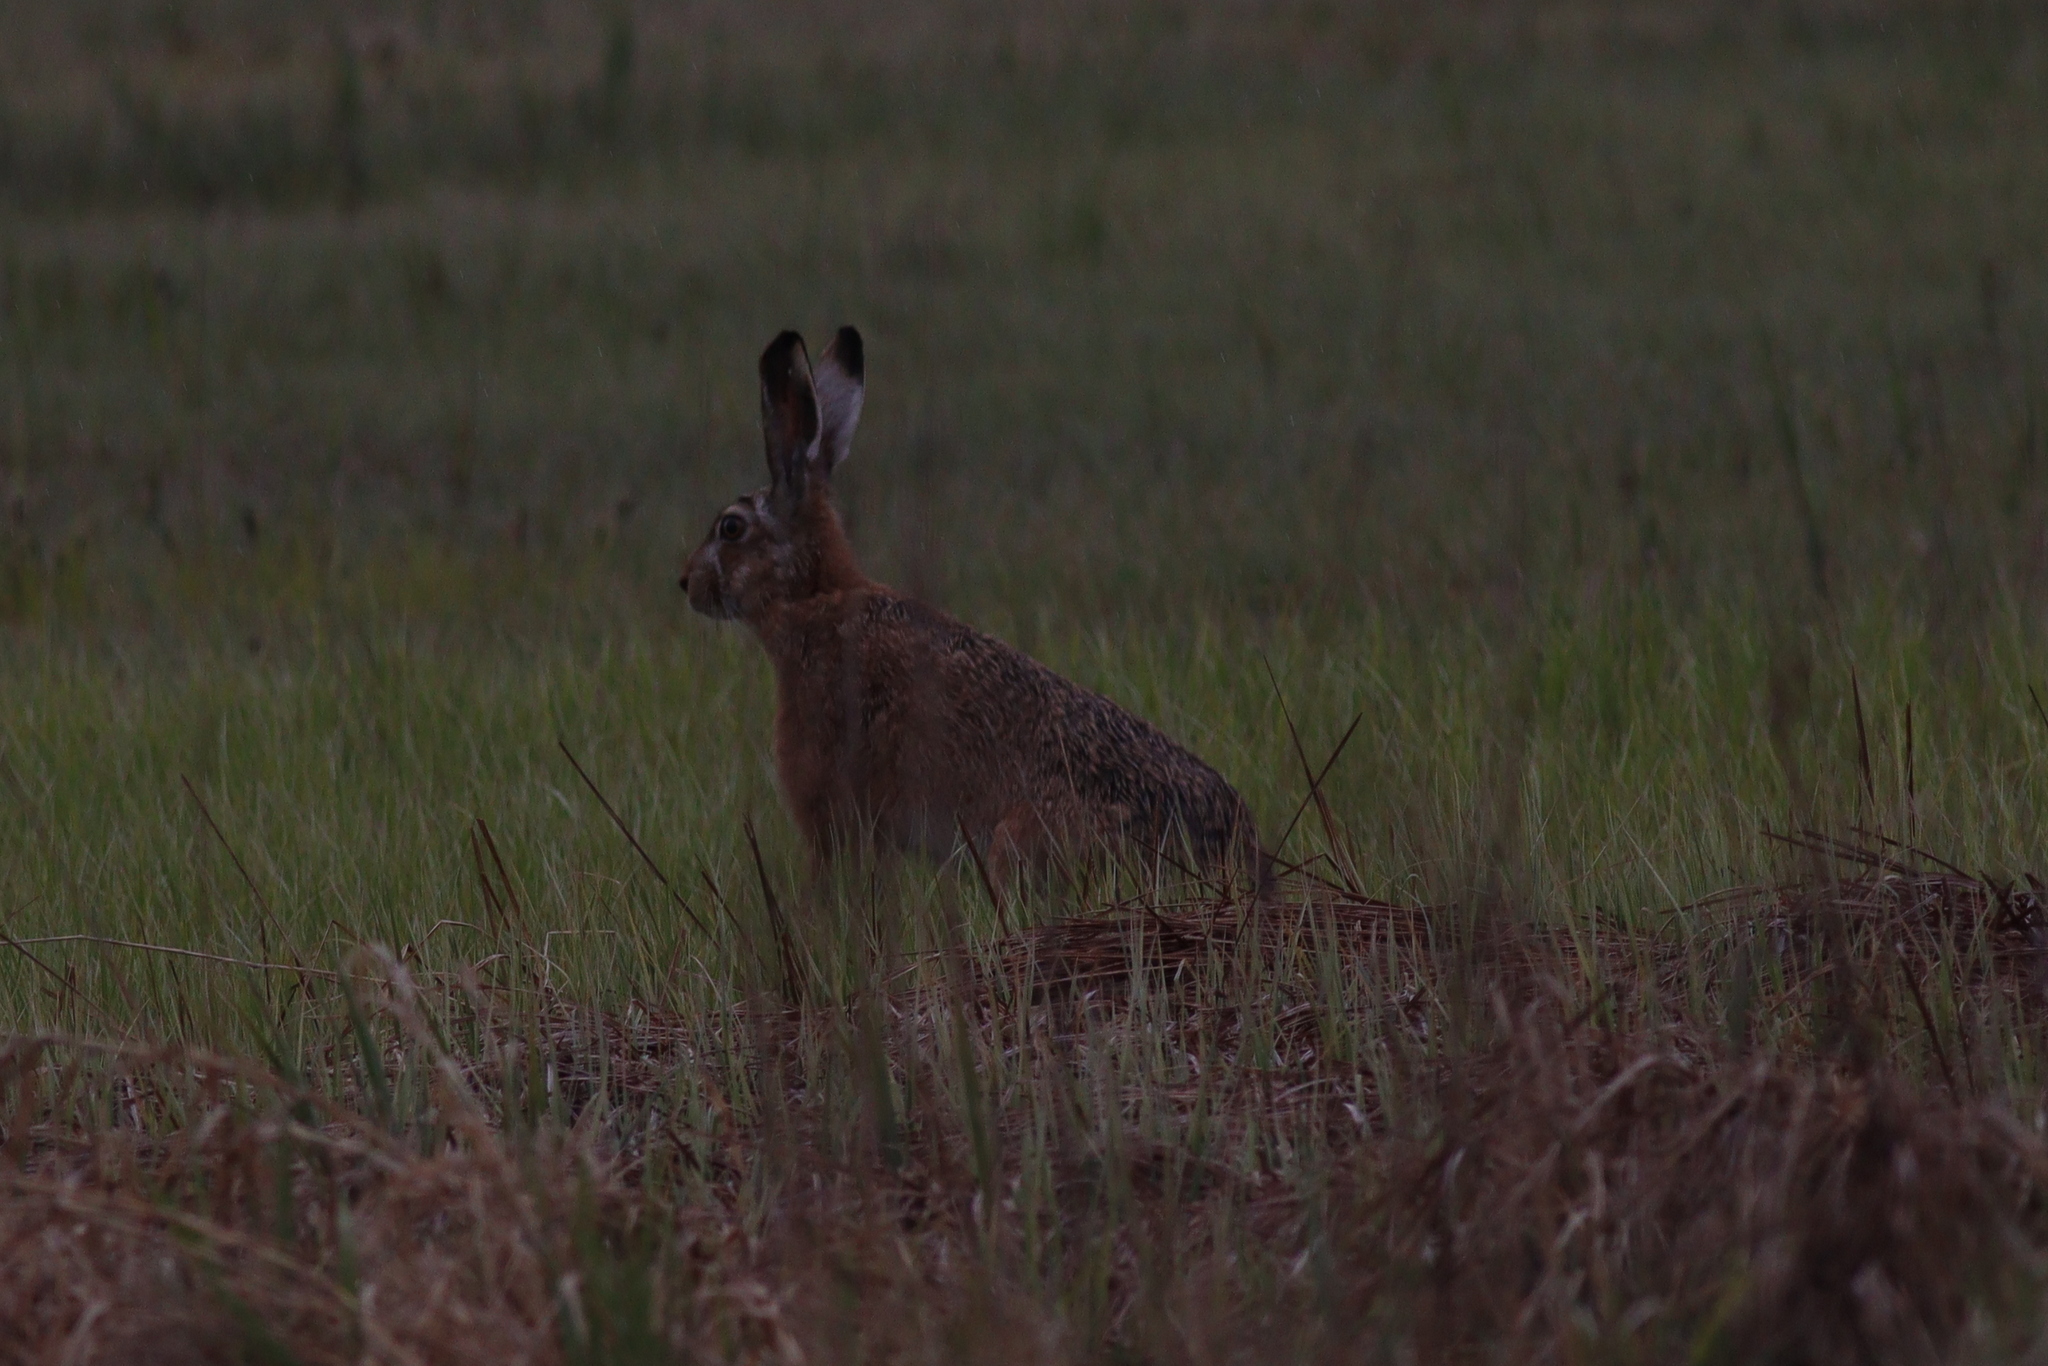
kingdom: Animalia
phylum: Chordata
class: Mammalia
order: Lagomorpha
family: Leporidae
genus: Lepus
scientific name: Lepus europaeus
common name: European hare
